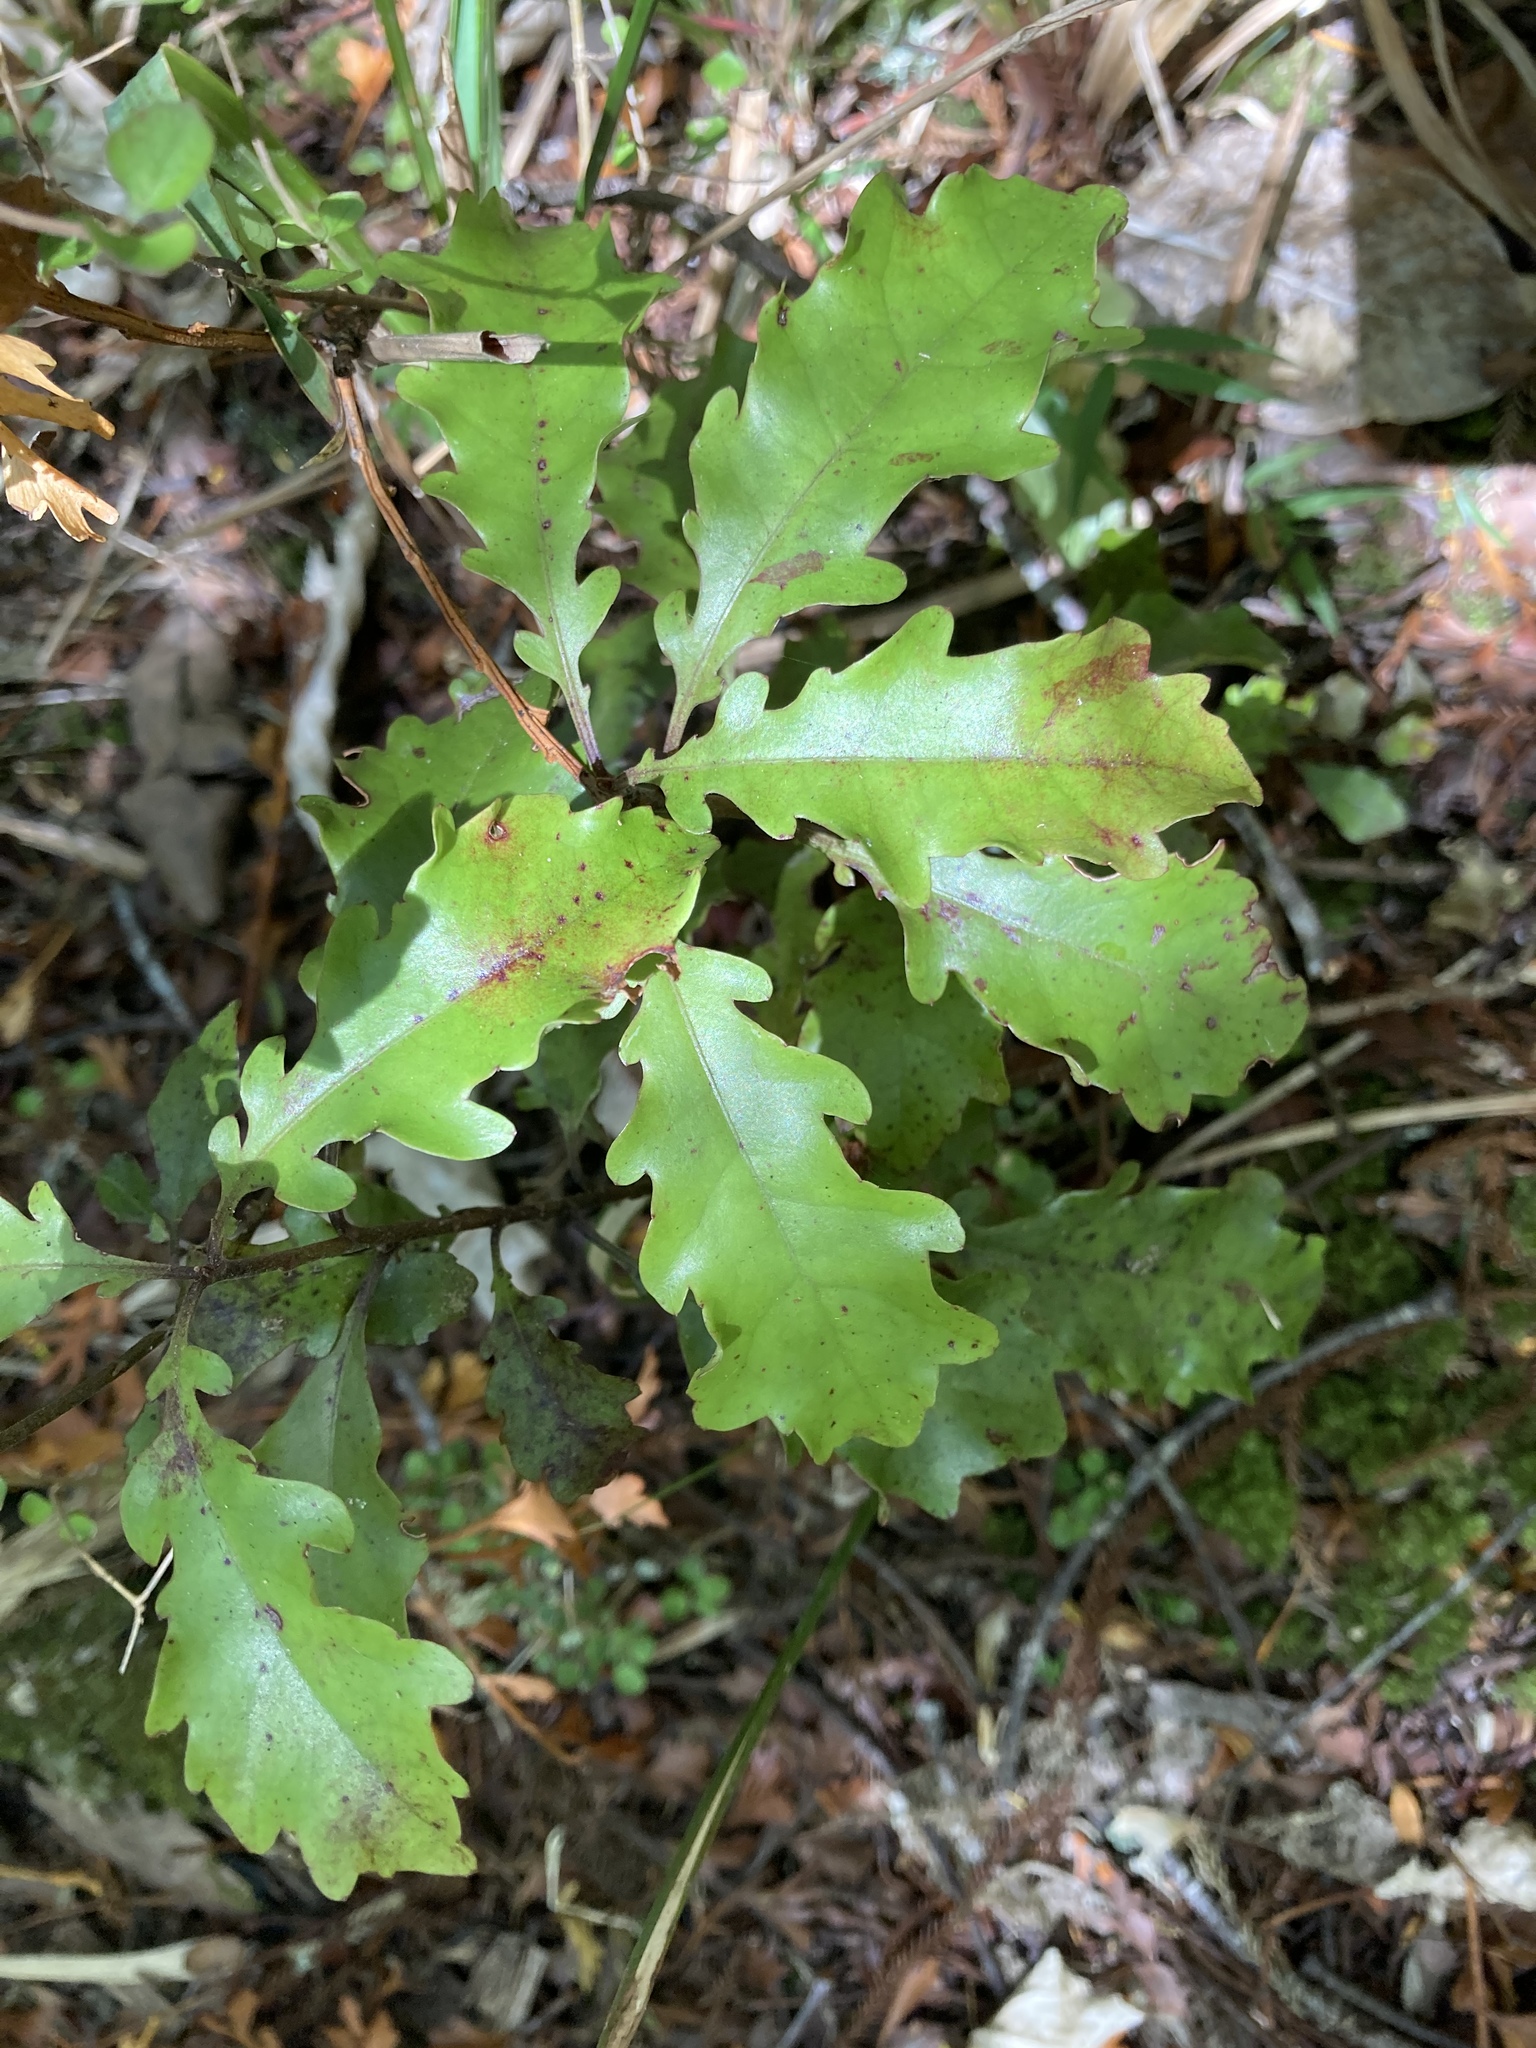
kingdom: Plantae
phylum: Tracheophyta
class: Magnoliopsida
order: Asterales
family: Alseuosmiaceae
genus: Alseuosmia
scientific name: Alseuosmia quercifolia
